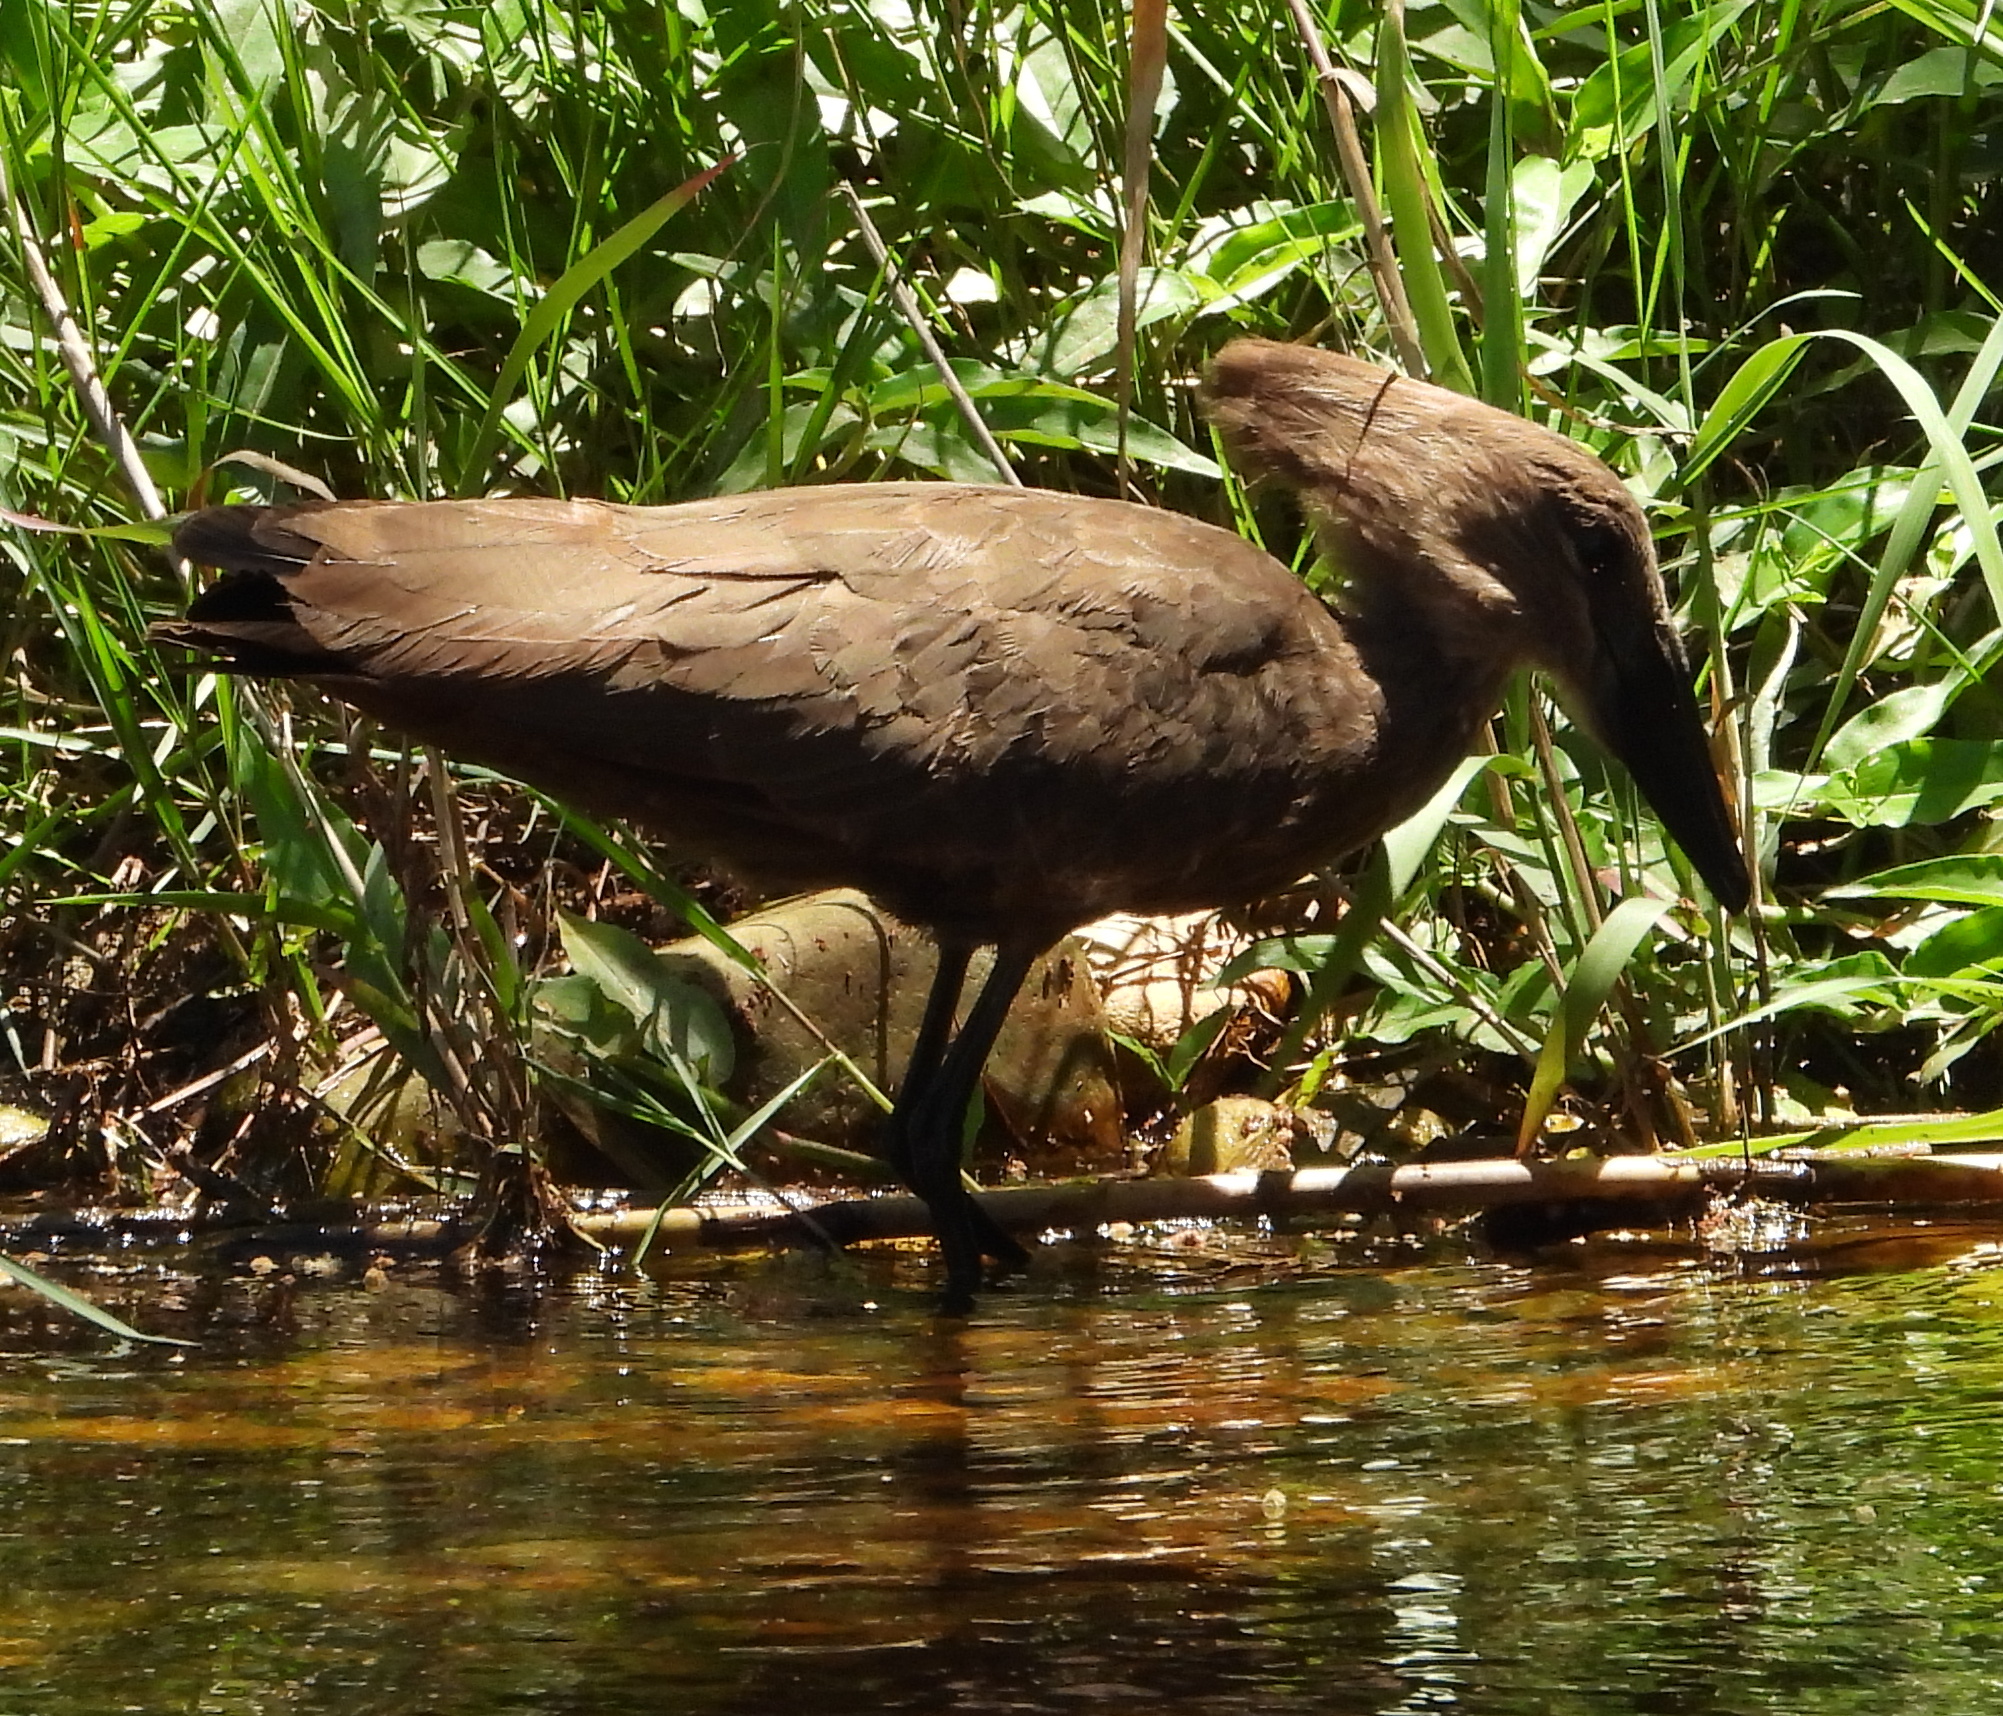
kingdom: Animalia
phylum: Chordata
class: Aves
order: Pelecaniformes
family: Scopidae
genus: Scopus
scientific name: Scopus umbretta
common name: Hamerkop
